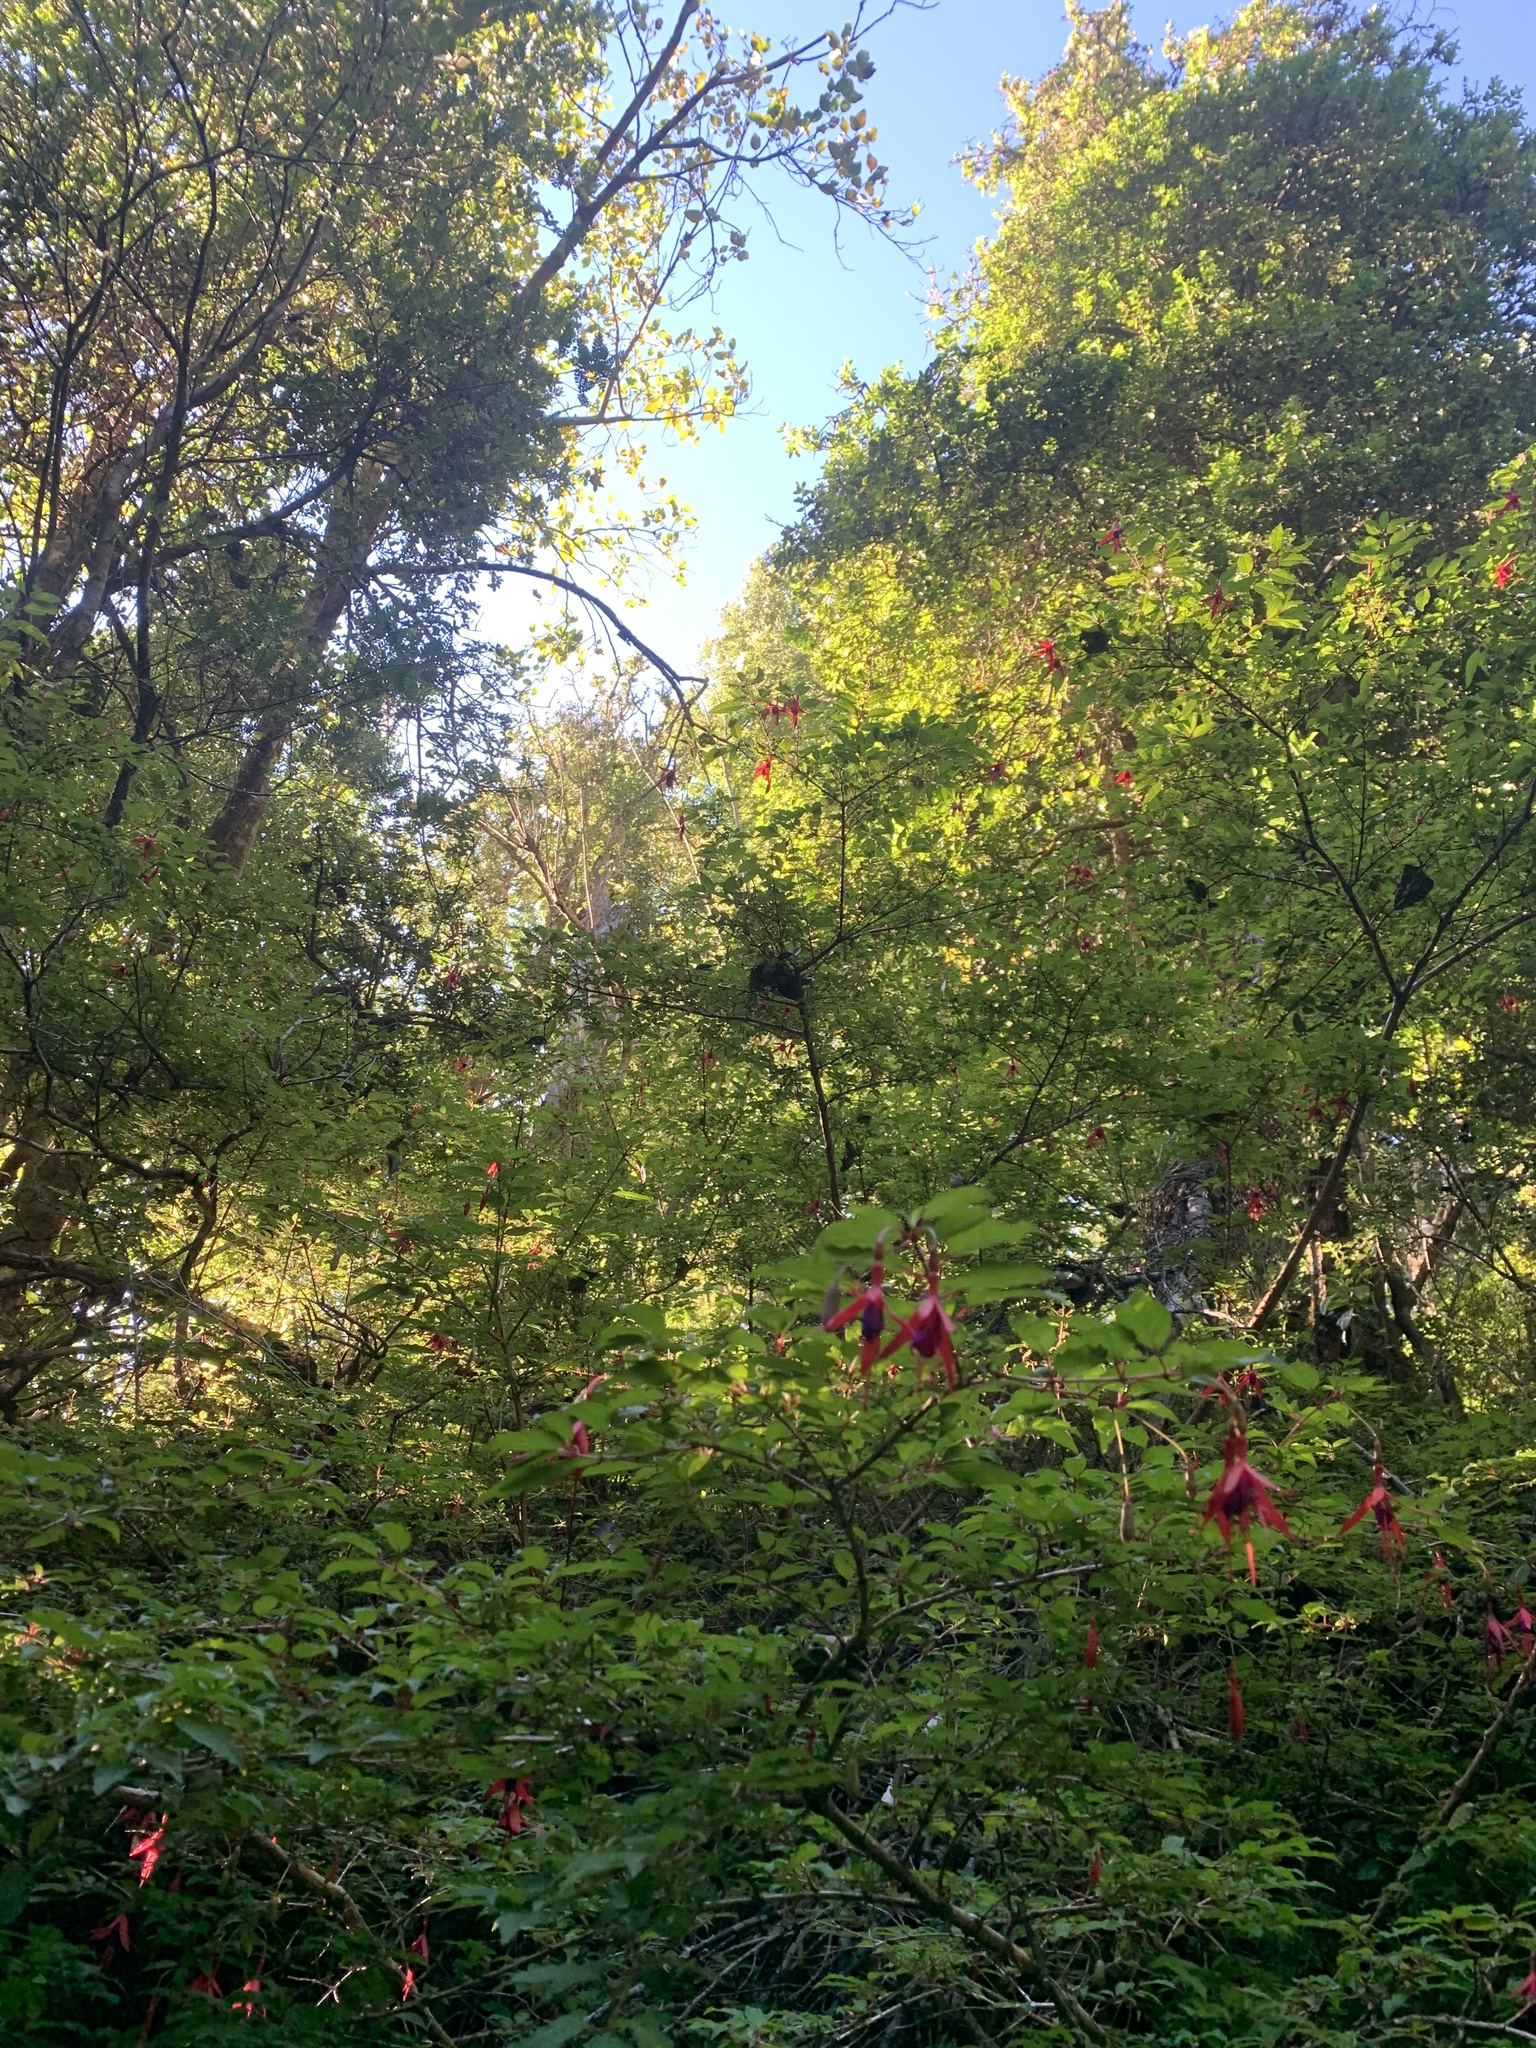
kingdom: Plantae
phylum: Tracheophyta
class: Magnoliopsida
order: Myrtales
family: Onagraceae
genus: Fuchsia
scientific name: Fuchsia magellanica
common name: Hardy fuchsia
